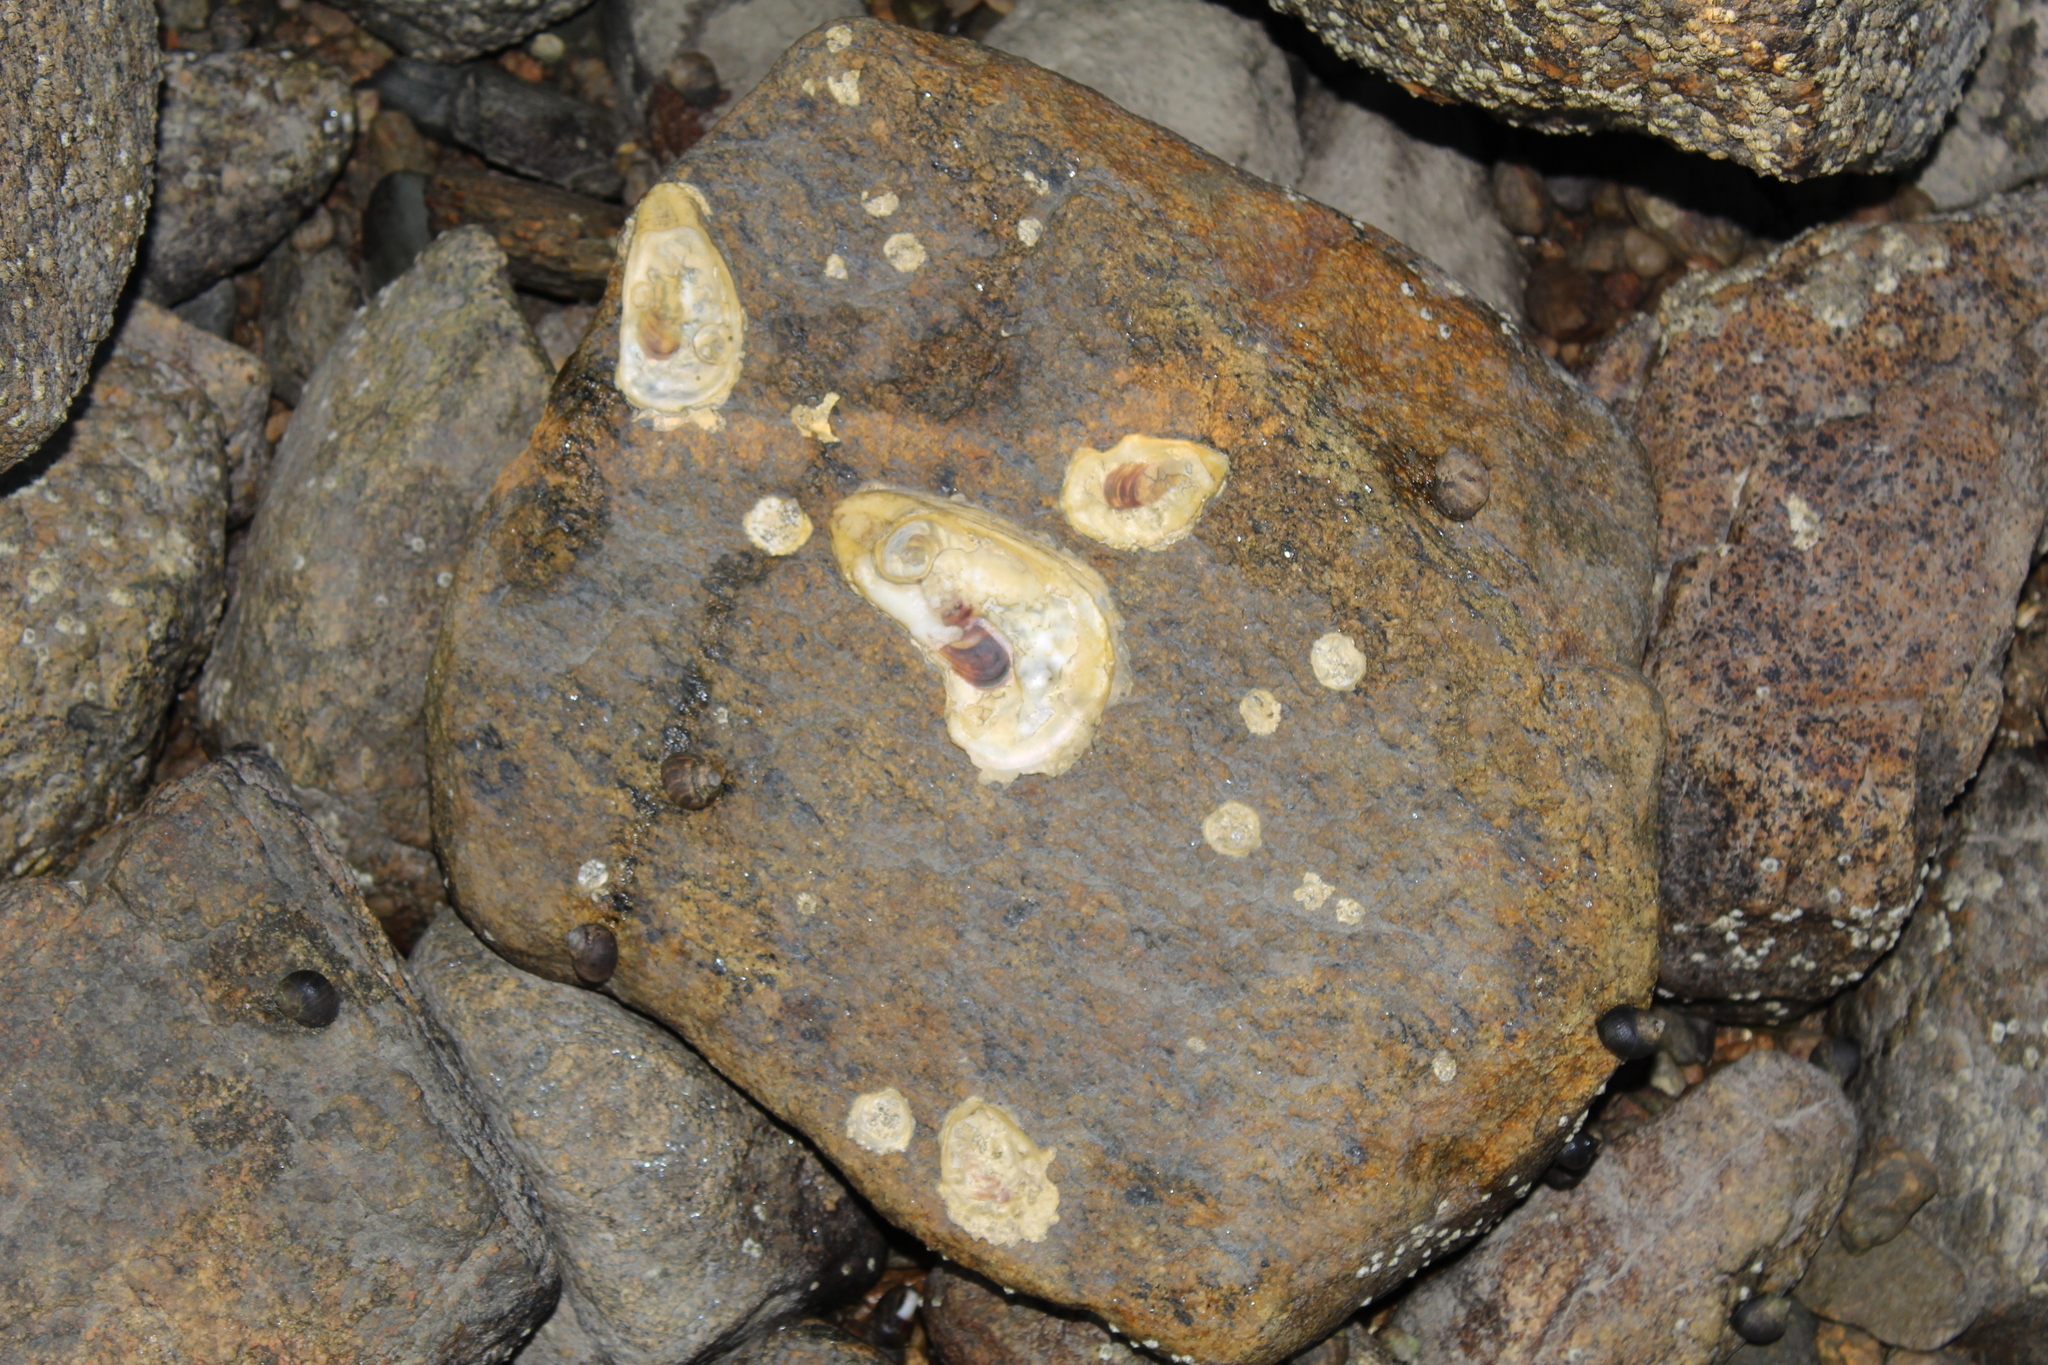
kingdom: Animalia
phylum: Mollusca
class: Bivalvia
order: Ostreida
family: Ostreidae
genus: Crassostrea
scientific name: Crassostrea virginica
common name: American oyster
